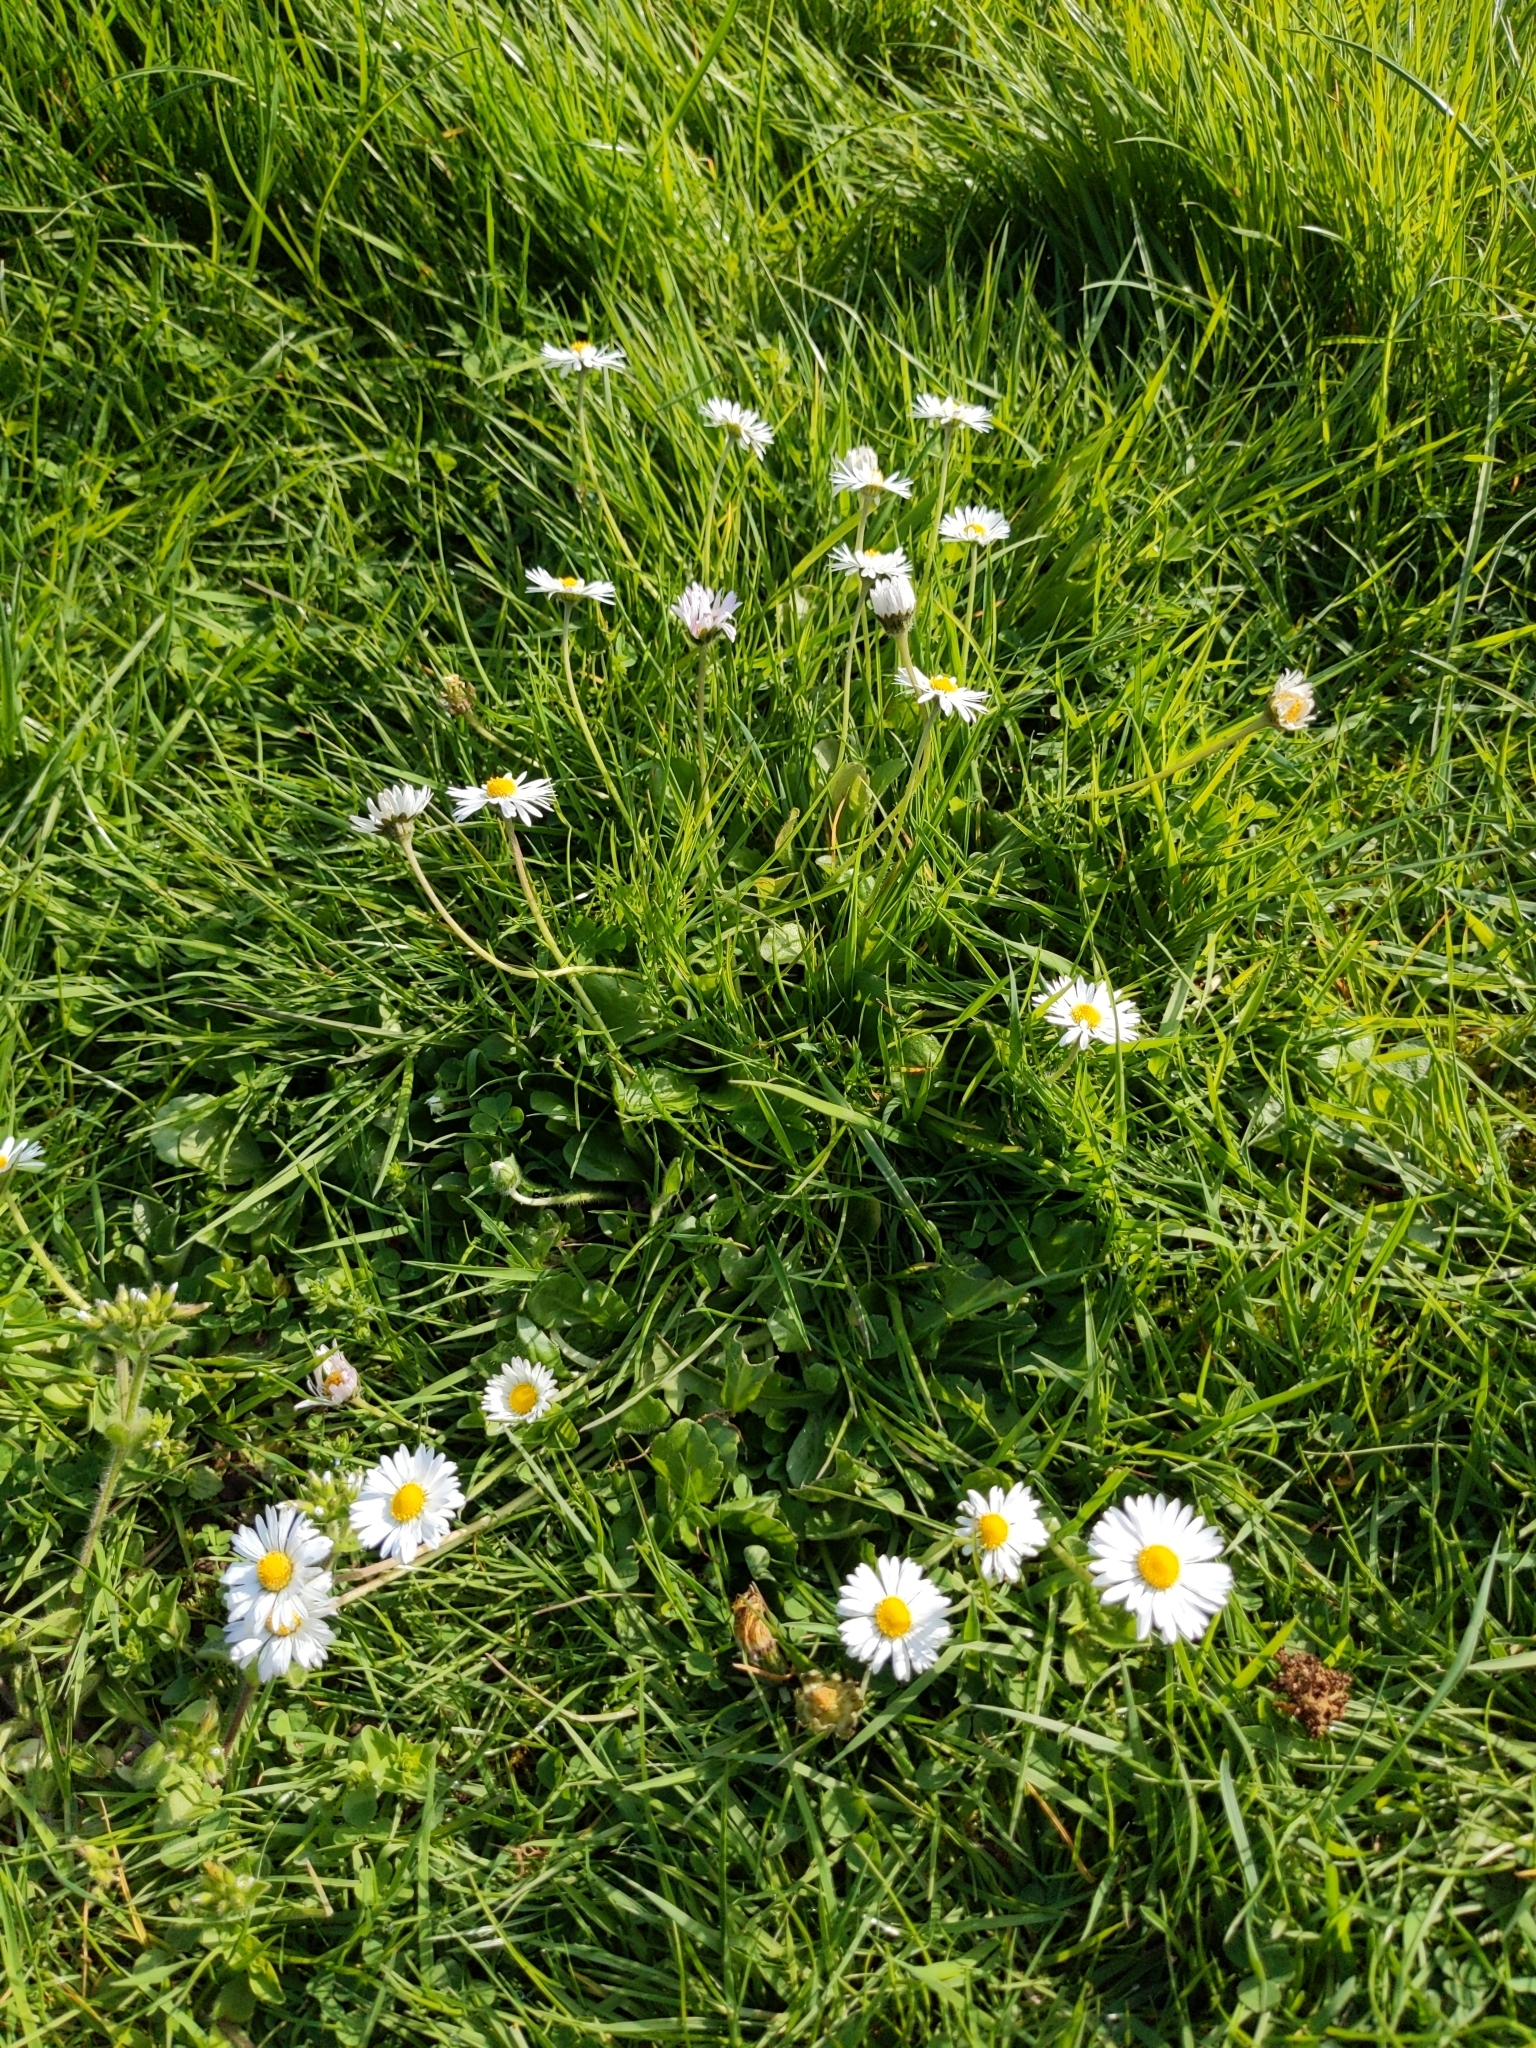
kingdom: Plantae
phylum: Tracheophyta
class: Magnoliopsida
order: Asterales
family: Asteraceae
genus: Bellis
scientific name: Bellis perennis
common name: Lawndaisy
